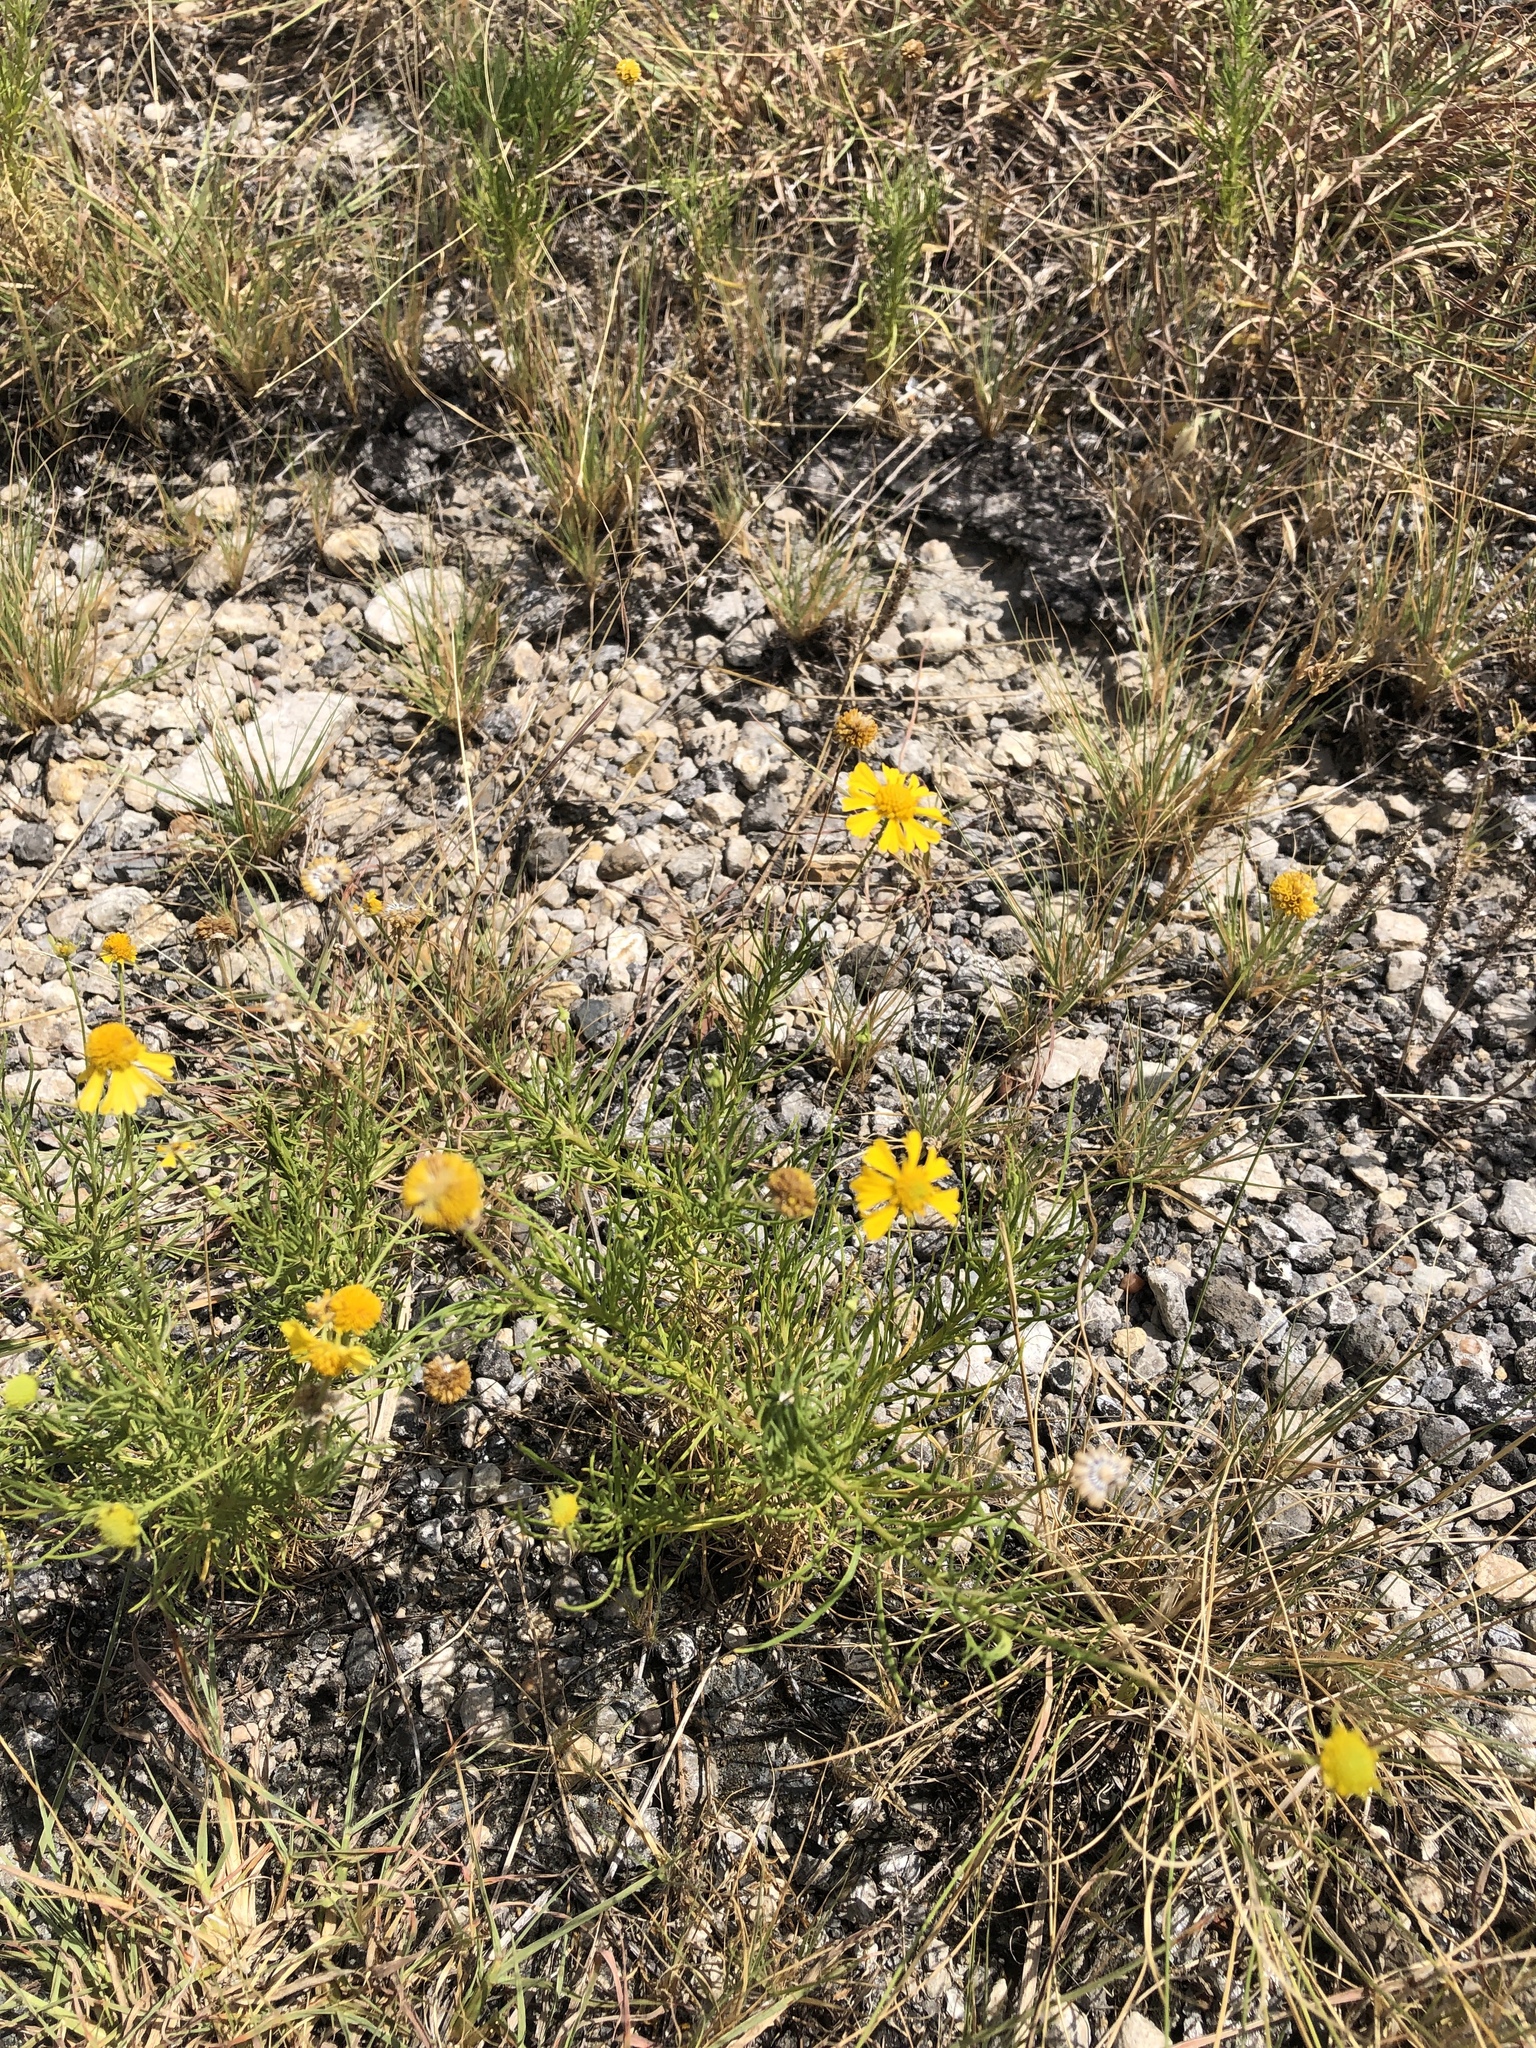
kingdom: Plantae
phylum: Tracheophyta
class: Magnoliopsida
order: Asterales
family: Asteraceae
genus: Helenium
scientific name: Helenium amarum
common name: Bitter sneezeweed
